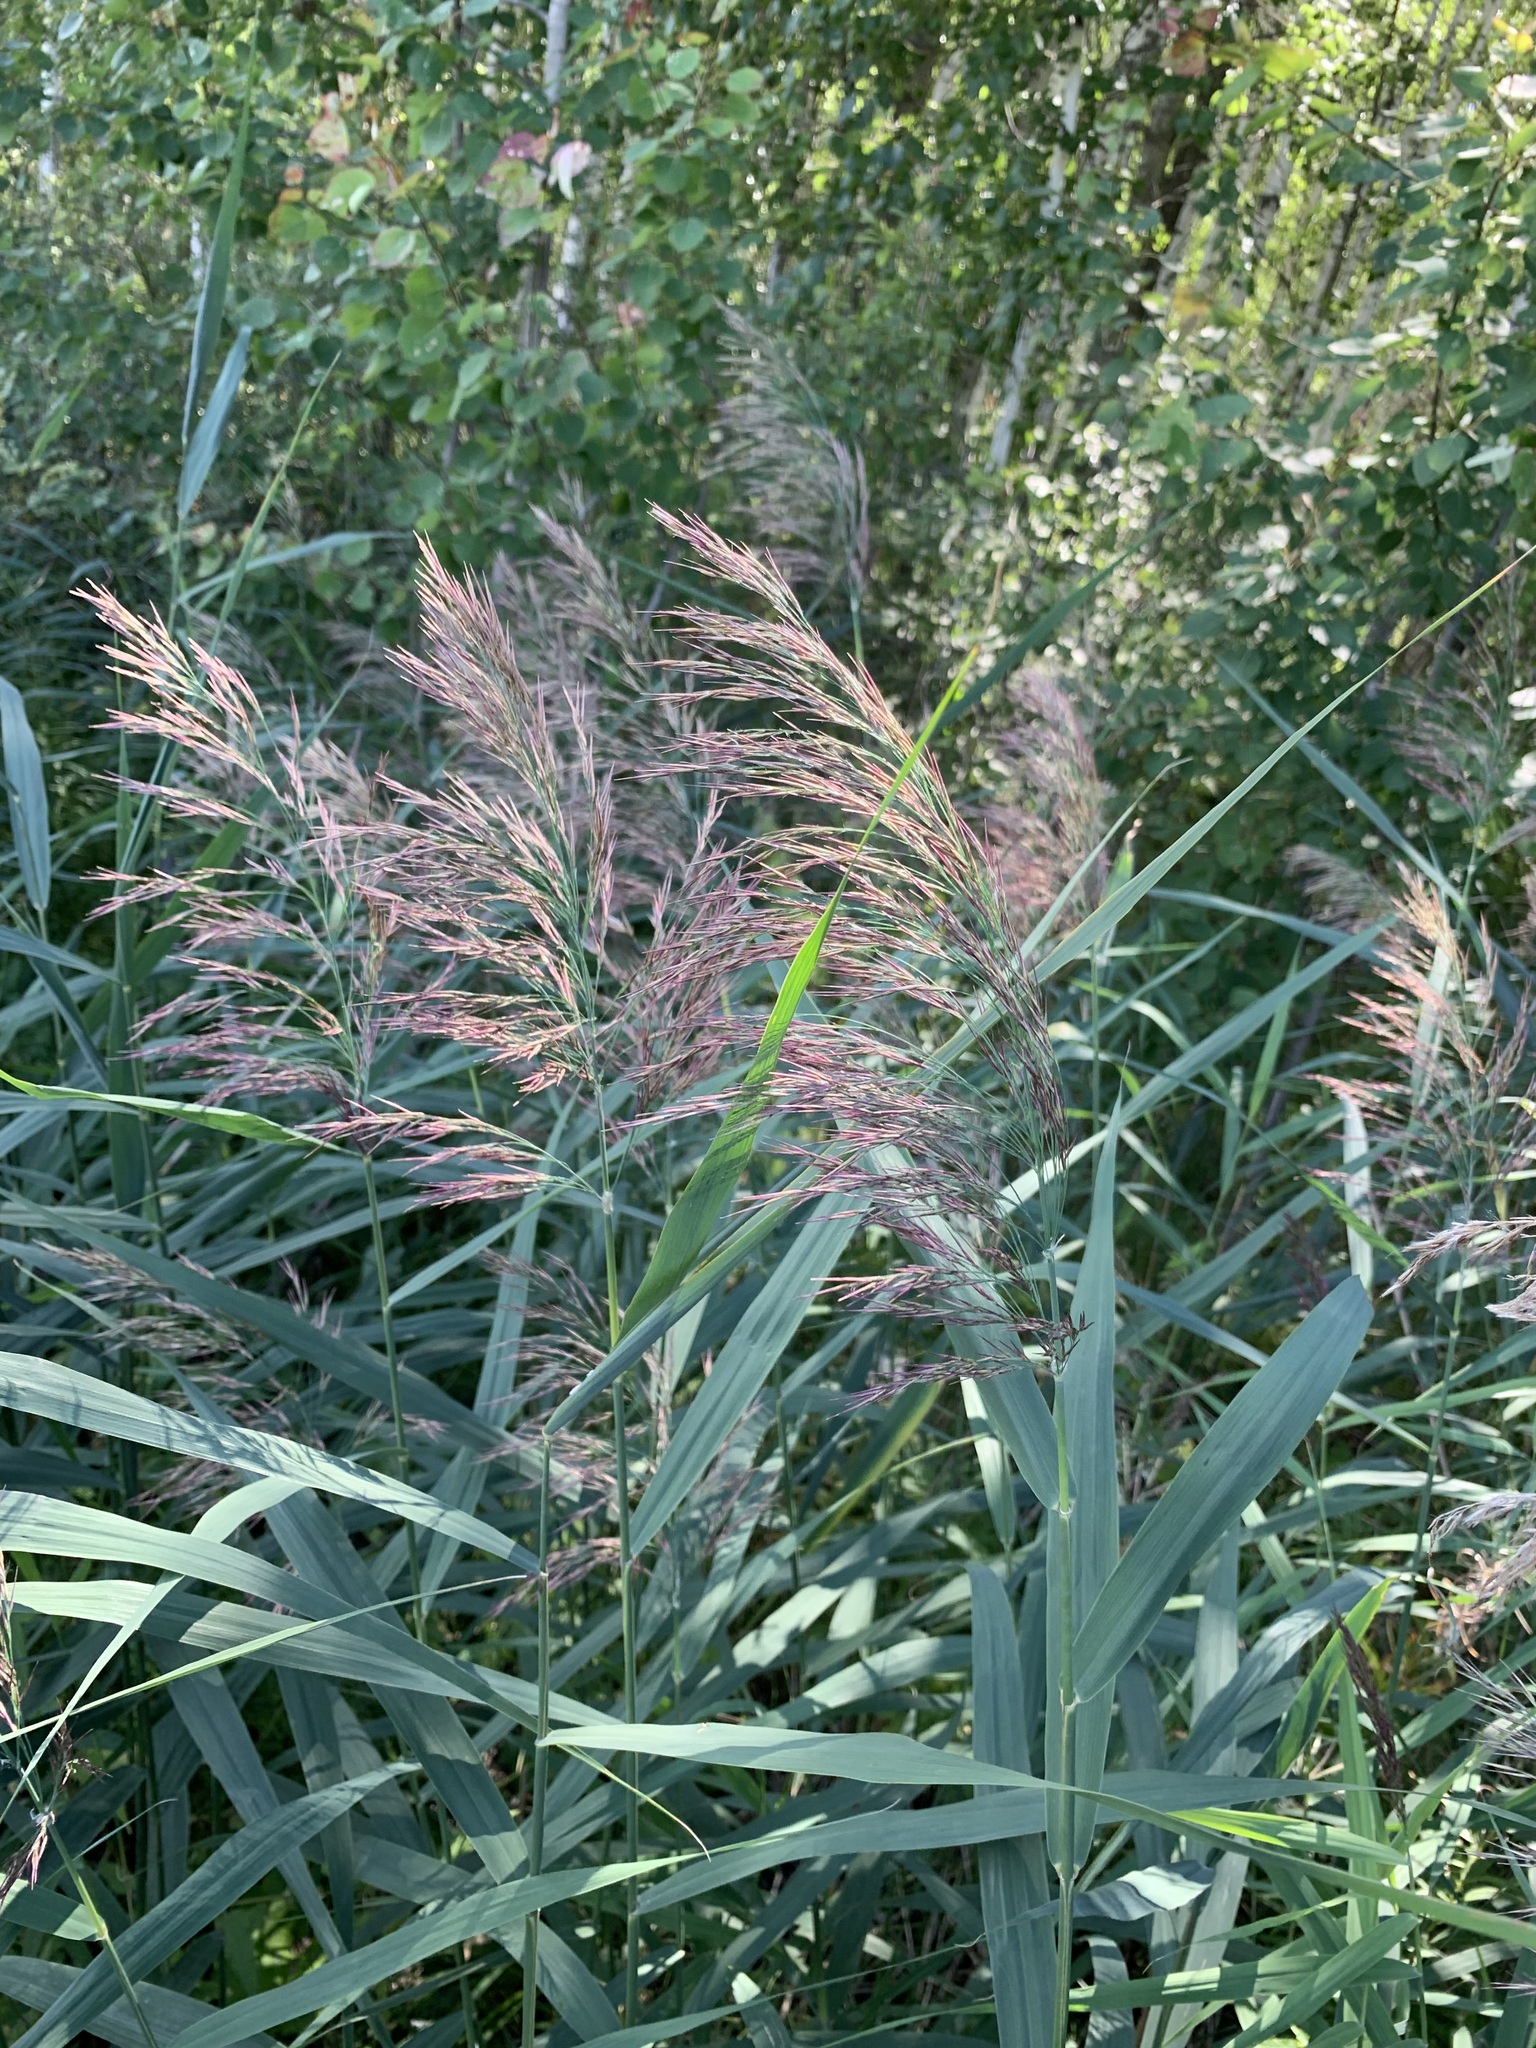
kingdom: Plantae
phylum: Tracheophyta
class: Liliopsida
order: Poales
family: Poaceae
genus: Phragmites
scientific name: Phragmites australis
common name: Common reed
